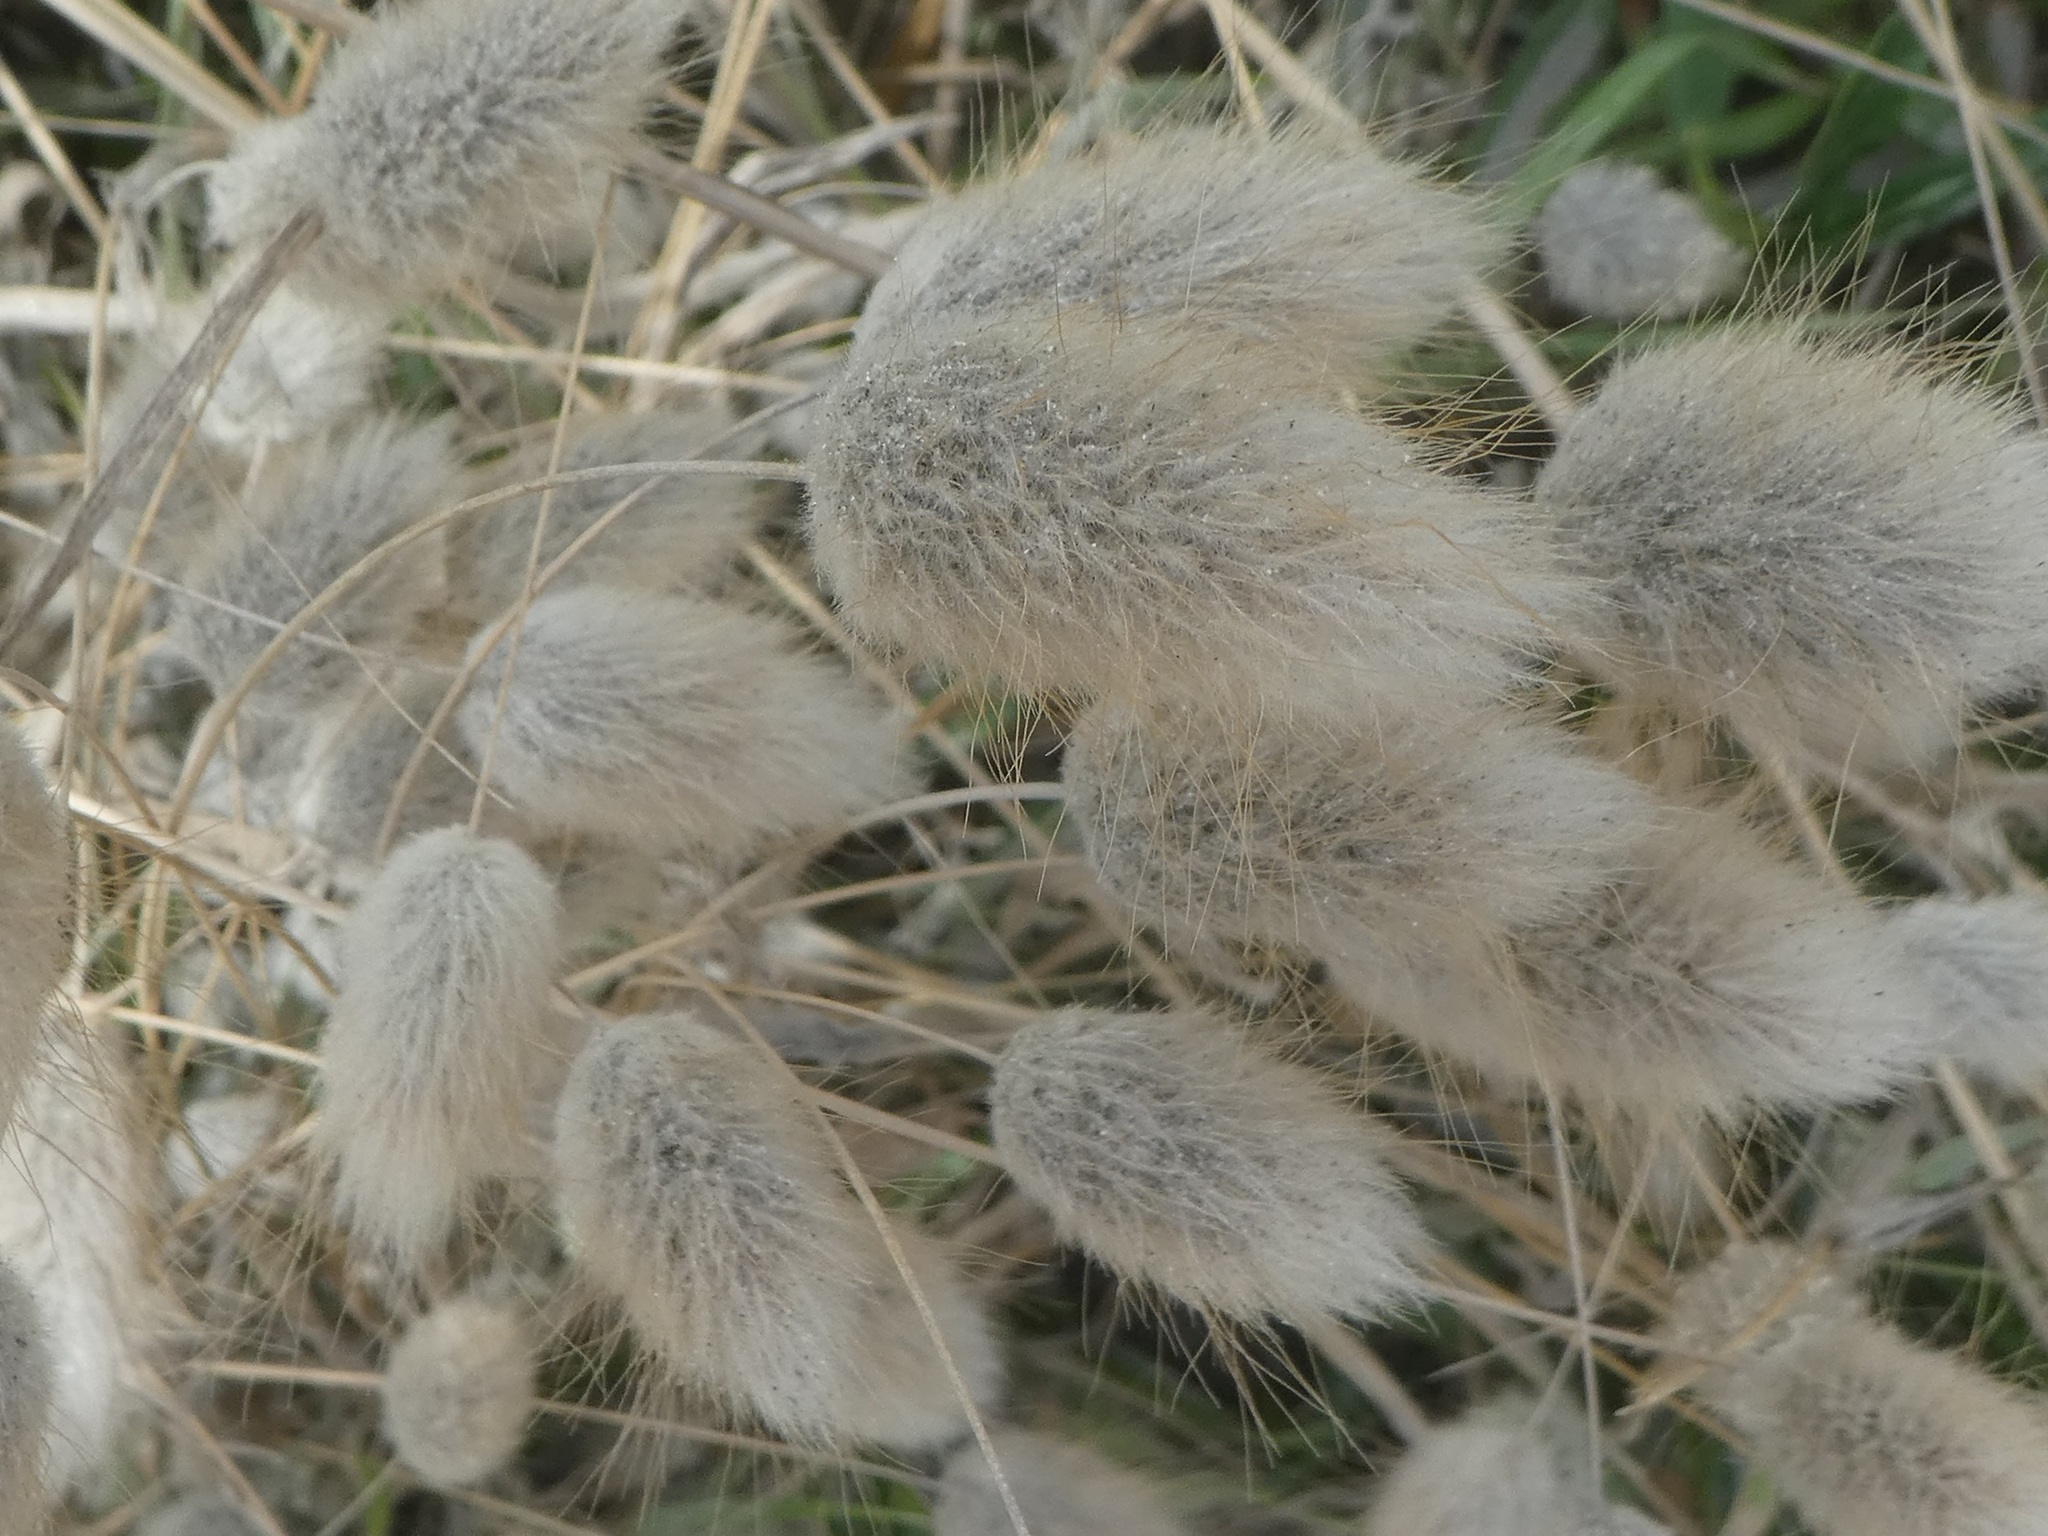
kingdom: Plantae
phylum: Tracheophyta
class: Liliopsida
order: Poales
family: Poaceae
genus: Lagurus
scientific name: Lagurus ovatus
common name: Hare's-tail
